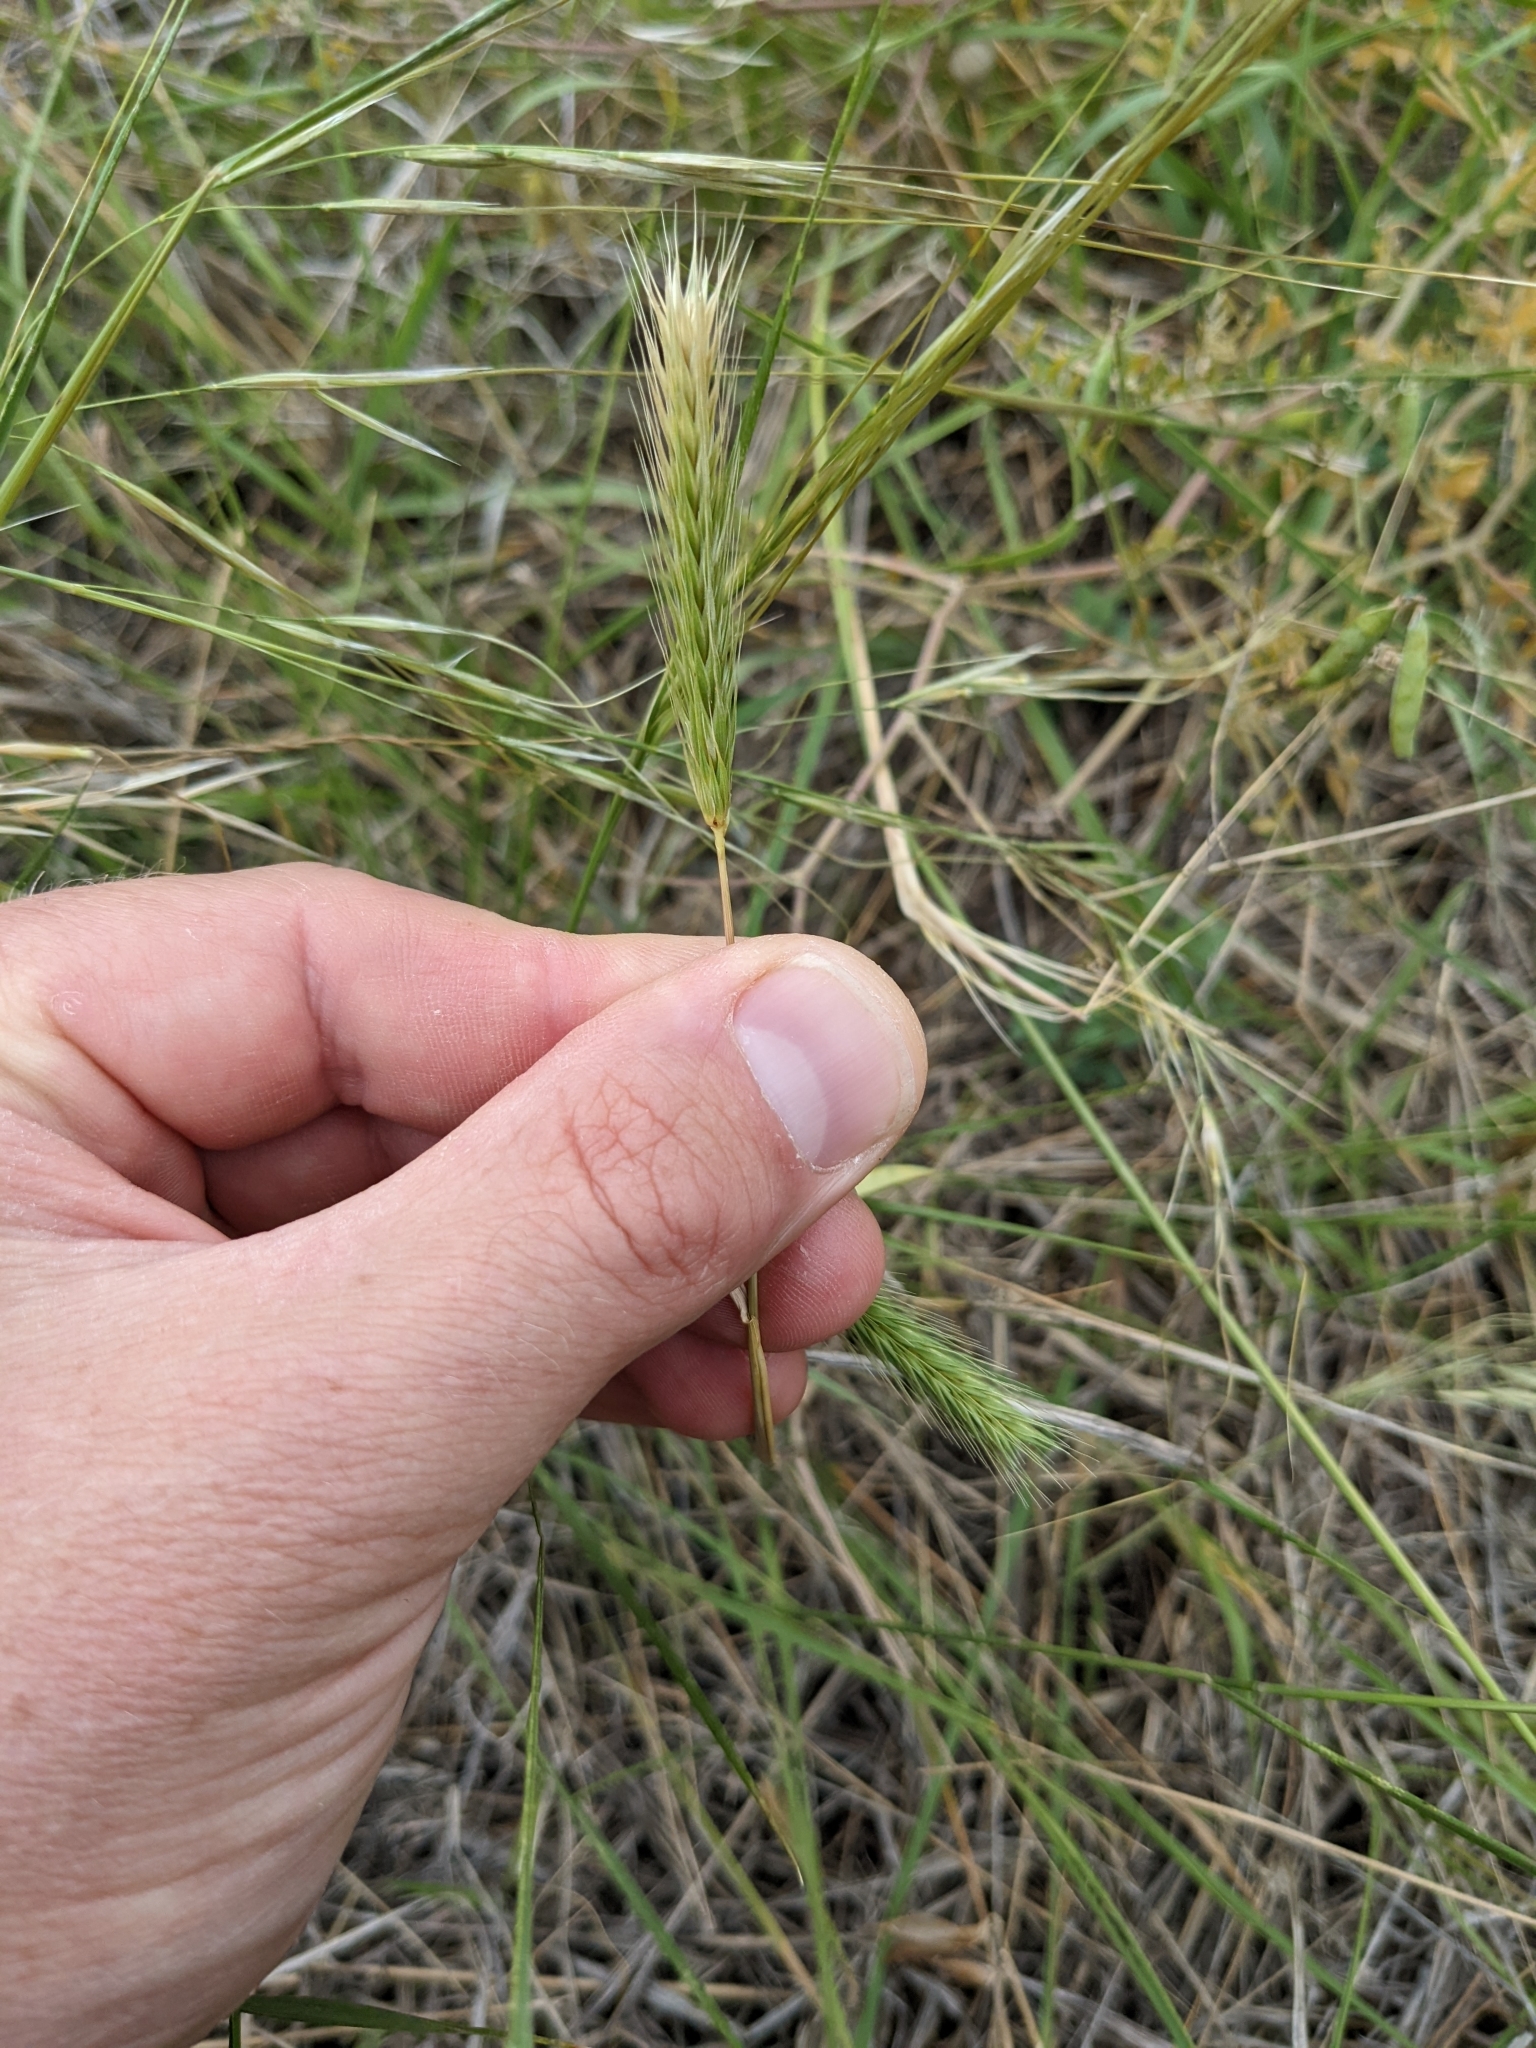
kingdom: Plantae
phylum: Tracheophyta
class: Liliopsida
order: Poales
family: Poaceae
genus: Hordeum
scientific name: Hordeum pusillum
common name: Little barley
